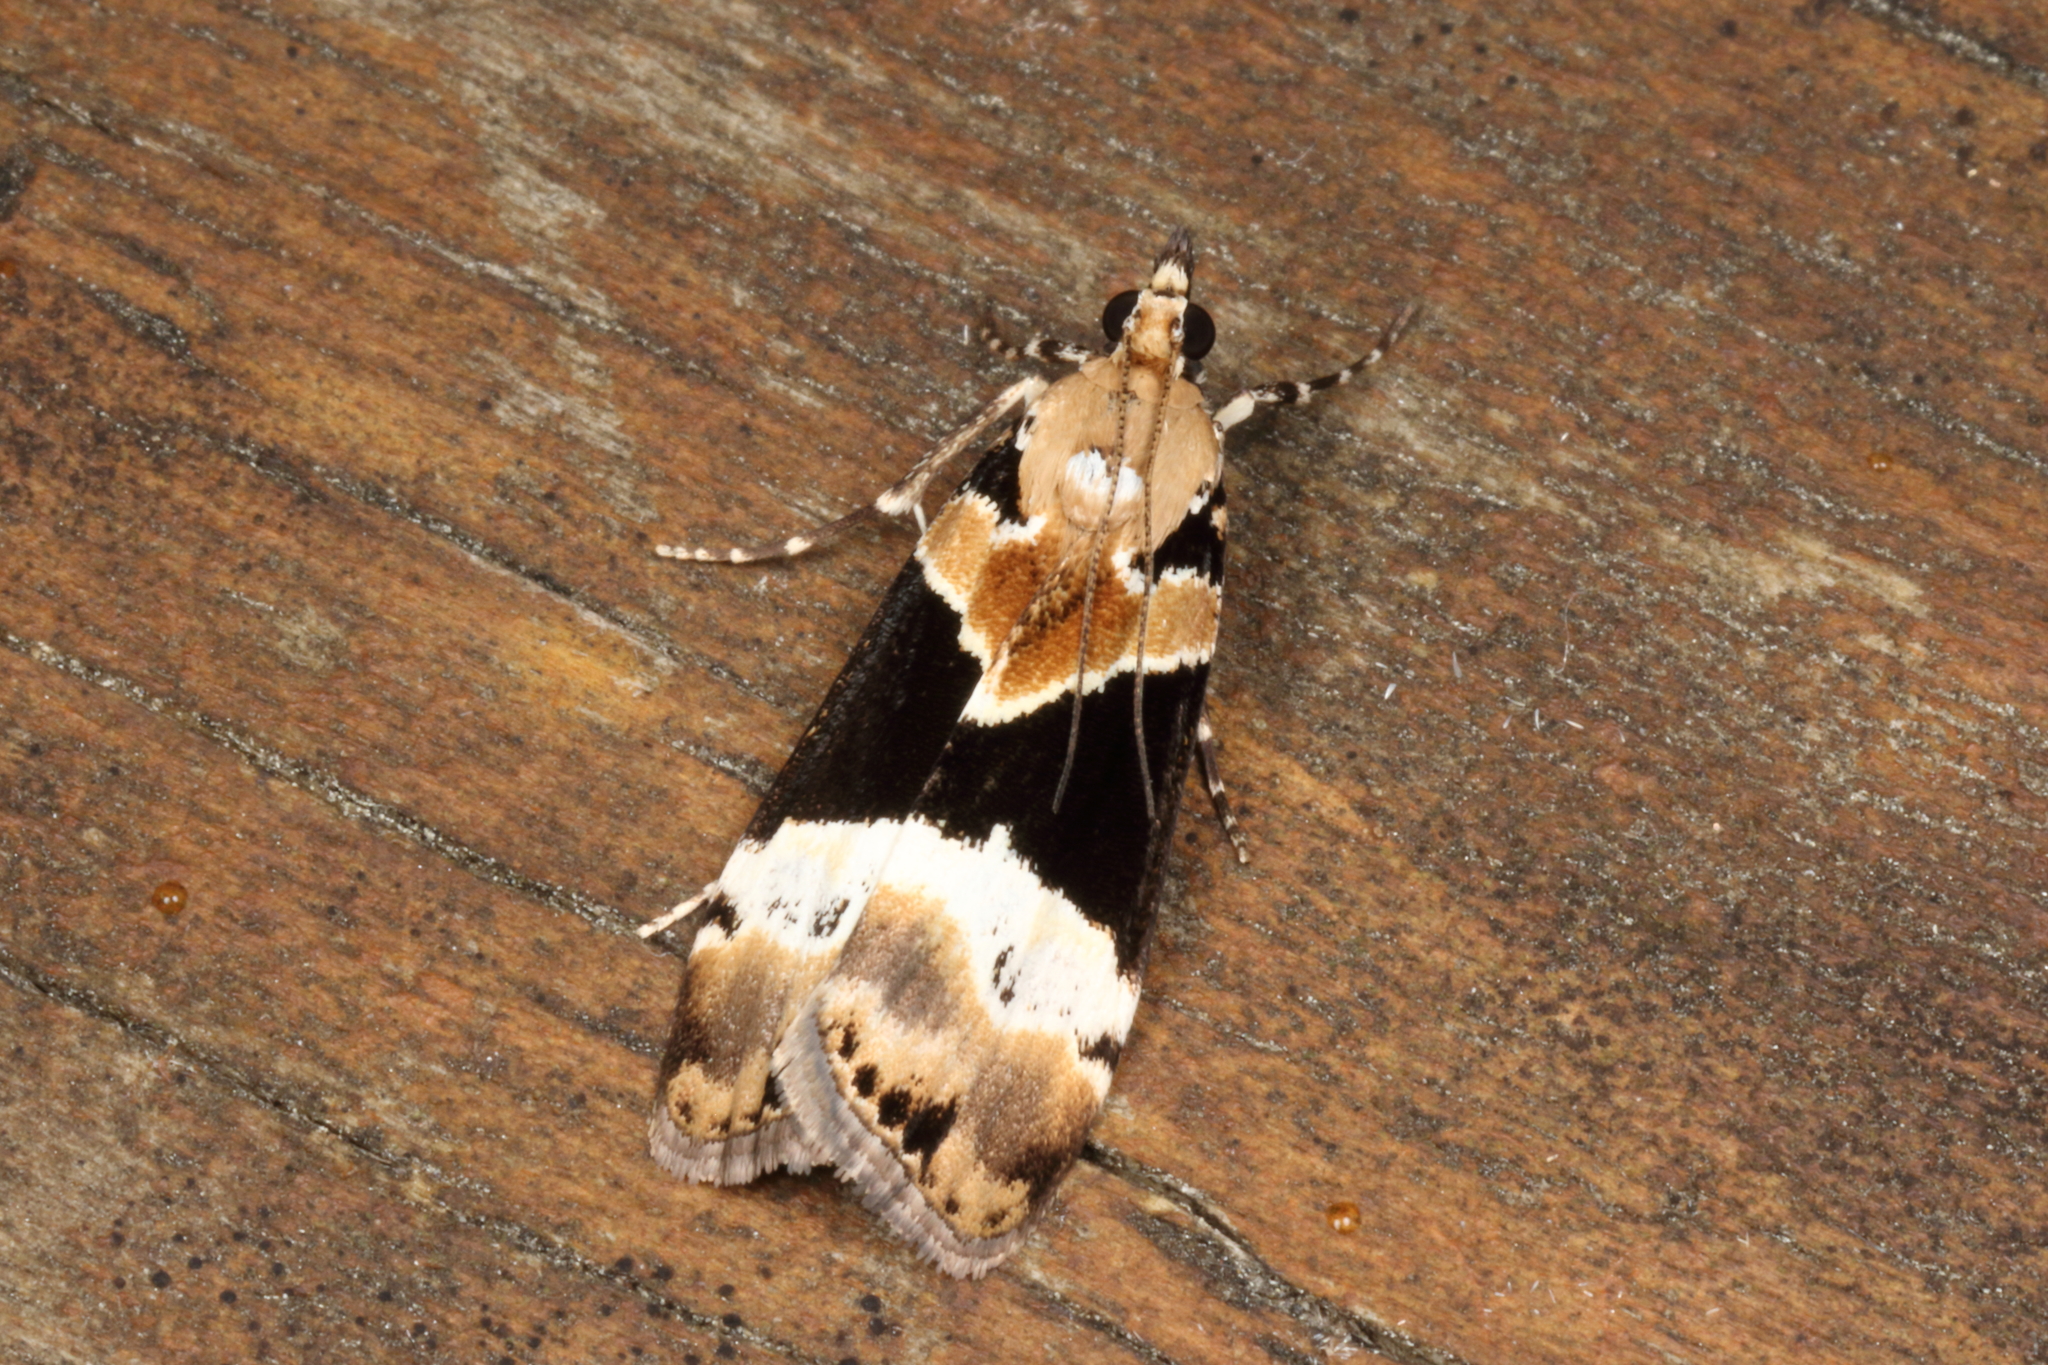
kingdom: Animalia
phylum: Arthropoda
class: Insecta
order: Lepidoptera
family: Crambidae
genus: Eudonia
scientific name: Eudonia aspidota
